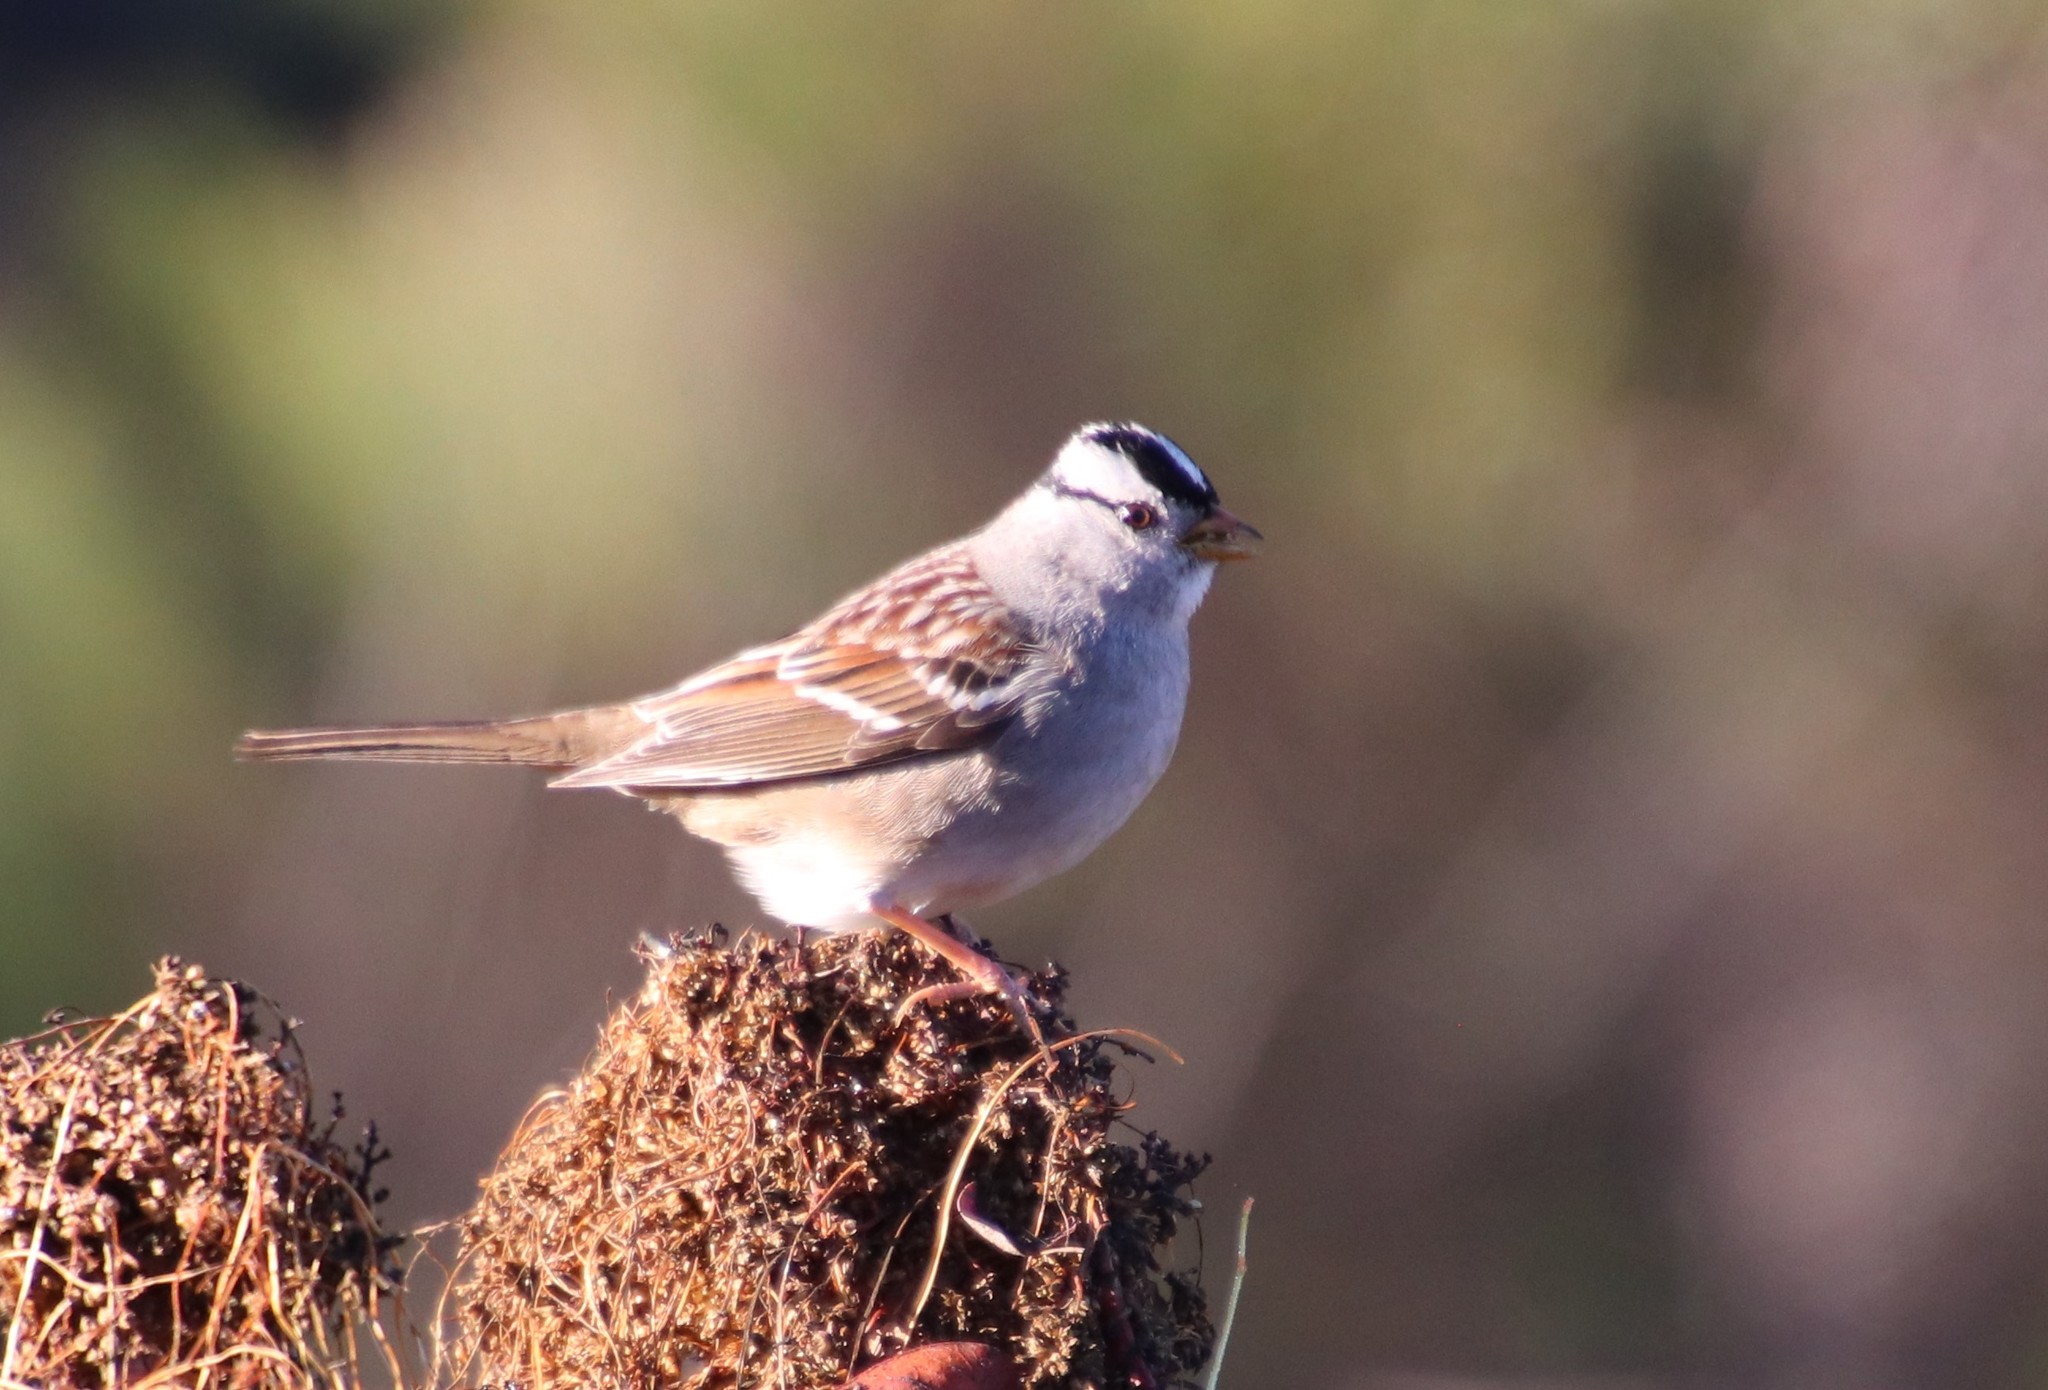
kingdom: Animalia
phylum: Chordata
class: Aves
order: Passeriformes
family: Passerellidae
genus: Zonotrichia
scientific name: Zonotrichia leucophrys
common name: White-crowned sparrow
